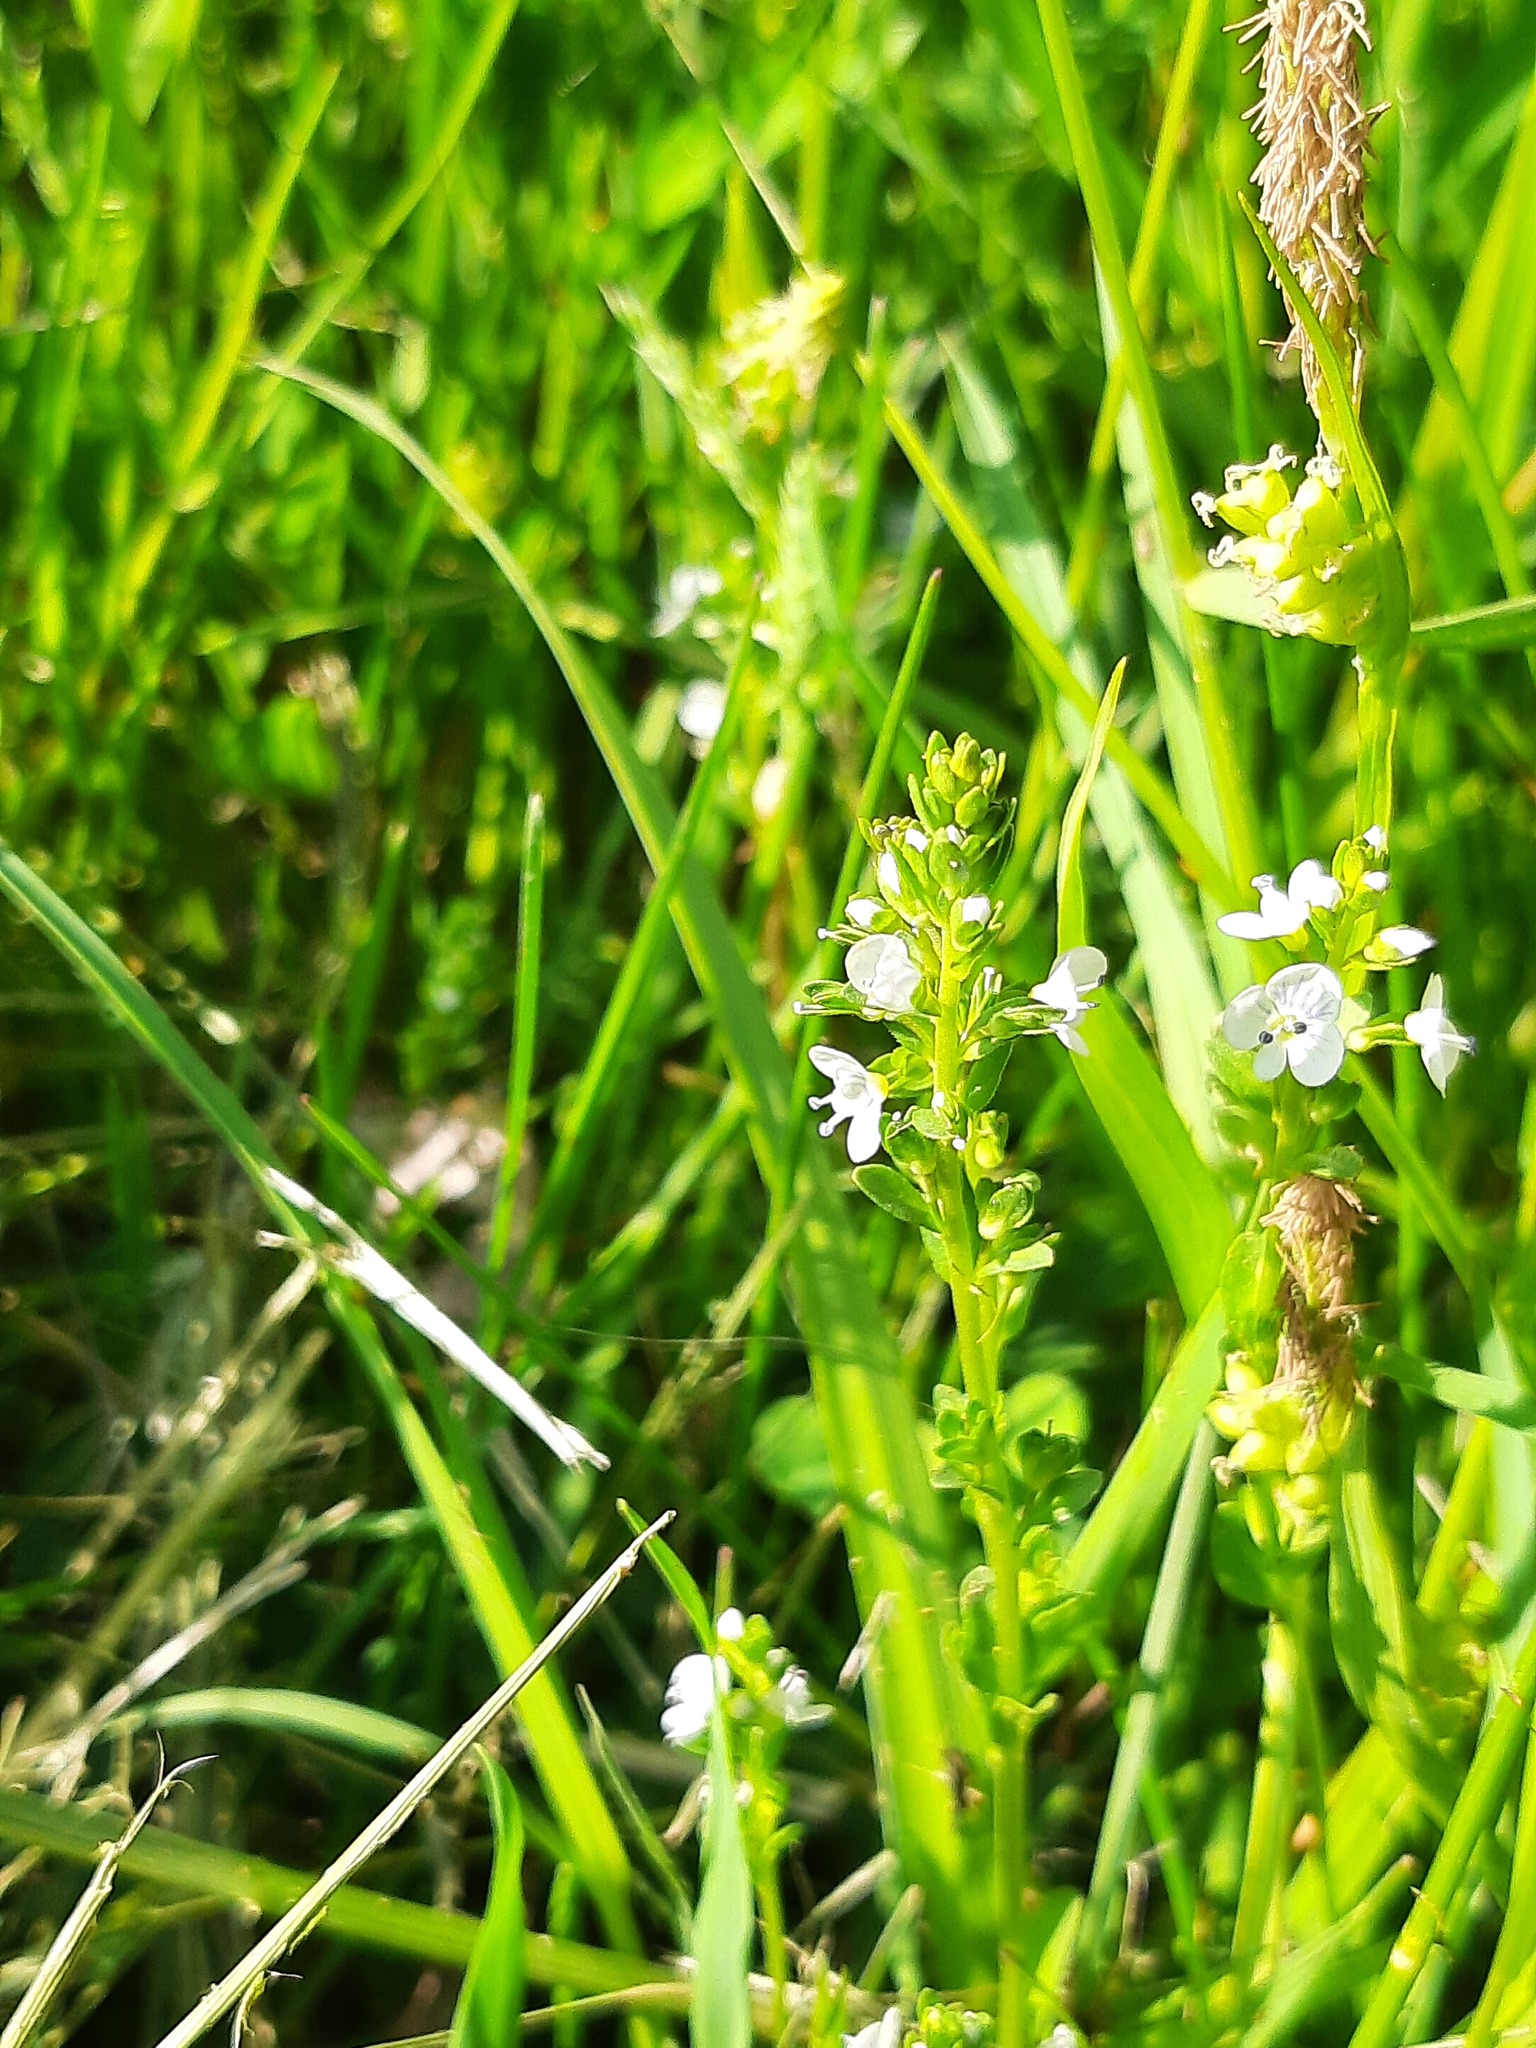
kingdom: Plantae
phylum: Tracheophyta
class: Magnoliopsida
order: Lamiales
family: Plantaginaceae
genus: Veronica
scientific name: Veronica serpyllifolia
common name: Thyme-leaved speedwell
